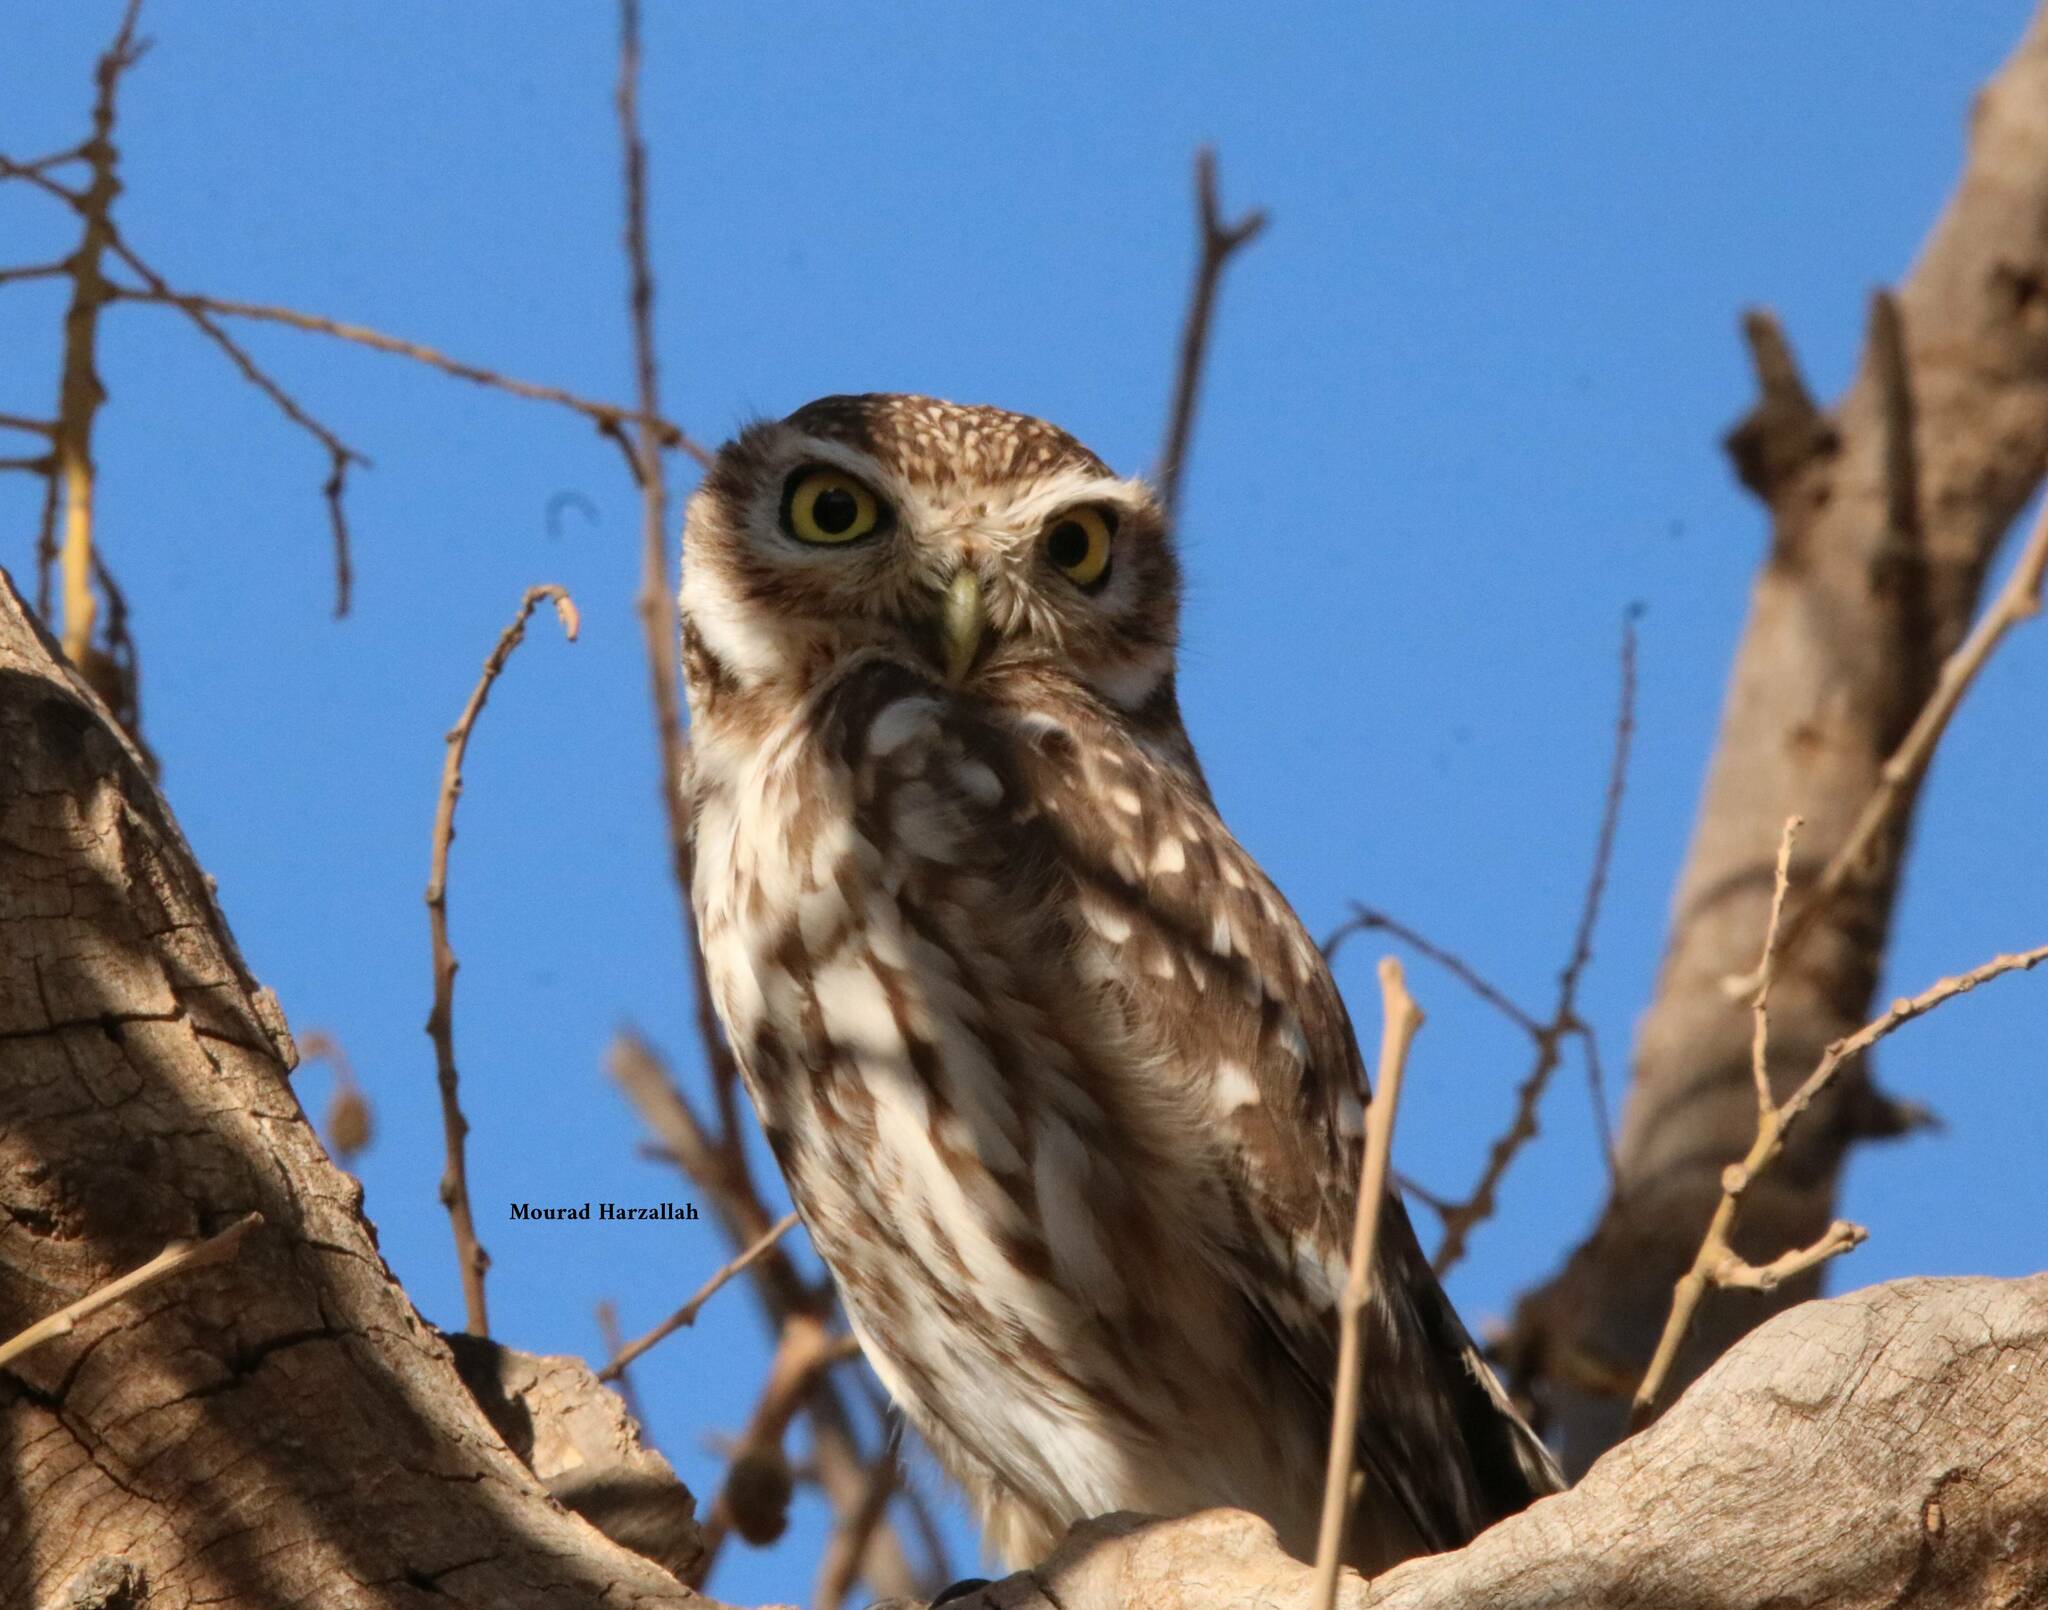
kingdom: Animalia
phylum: Chordata
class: Aves
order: Strigiformes
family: Strigidae
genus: Athene
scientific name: Athene noctua
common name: Little owl
